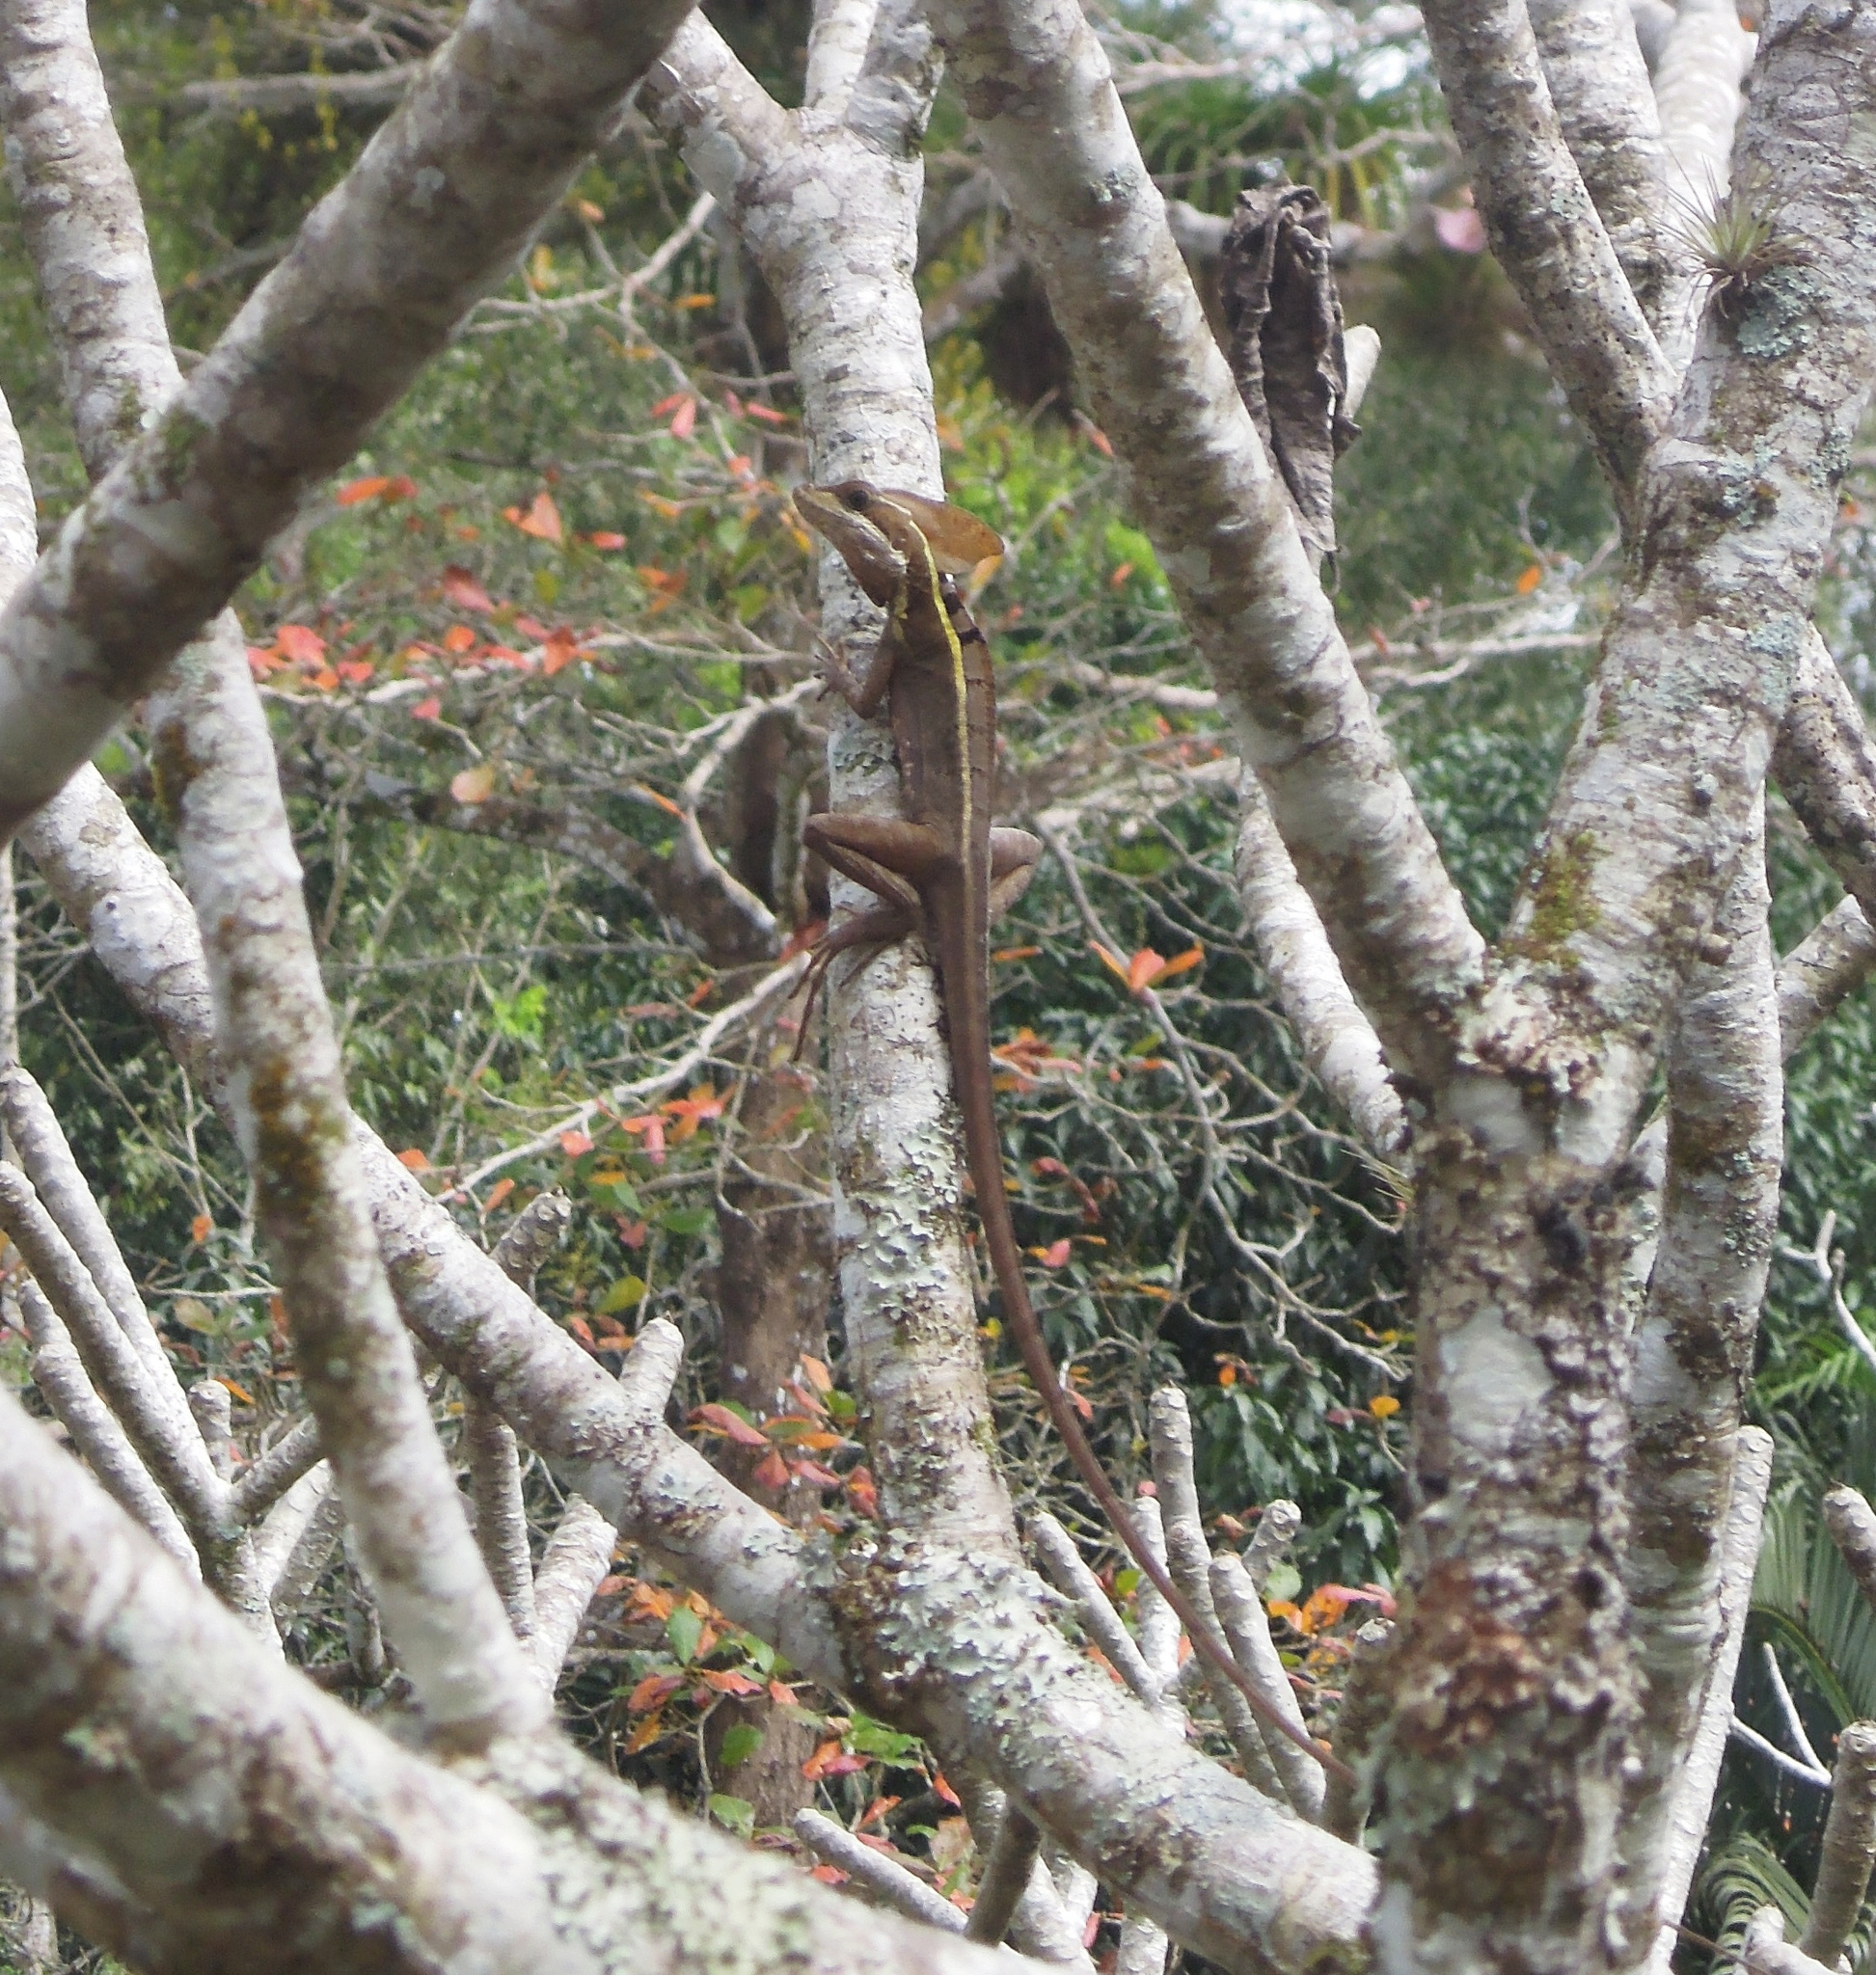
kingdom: Animalia
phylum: Chordata
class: Squamata
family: Corytophanidae
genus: Basiliscus
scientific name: Basiliscus vittatus
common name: Brown basilisk
